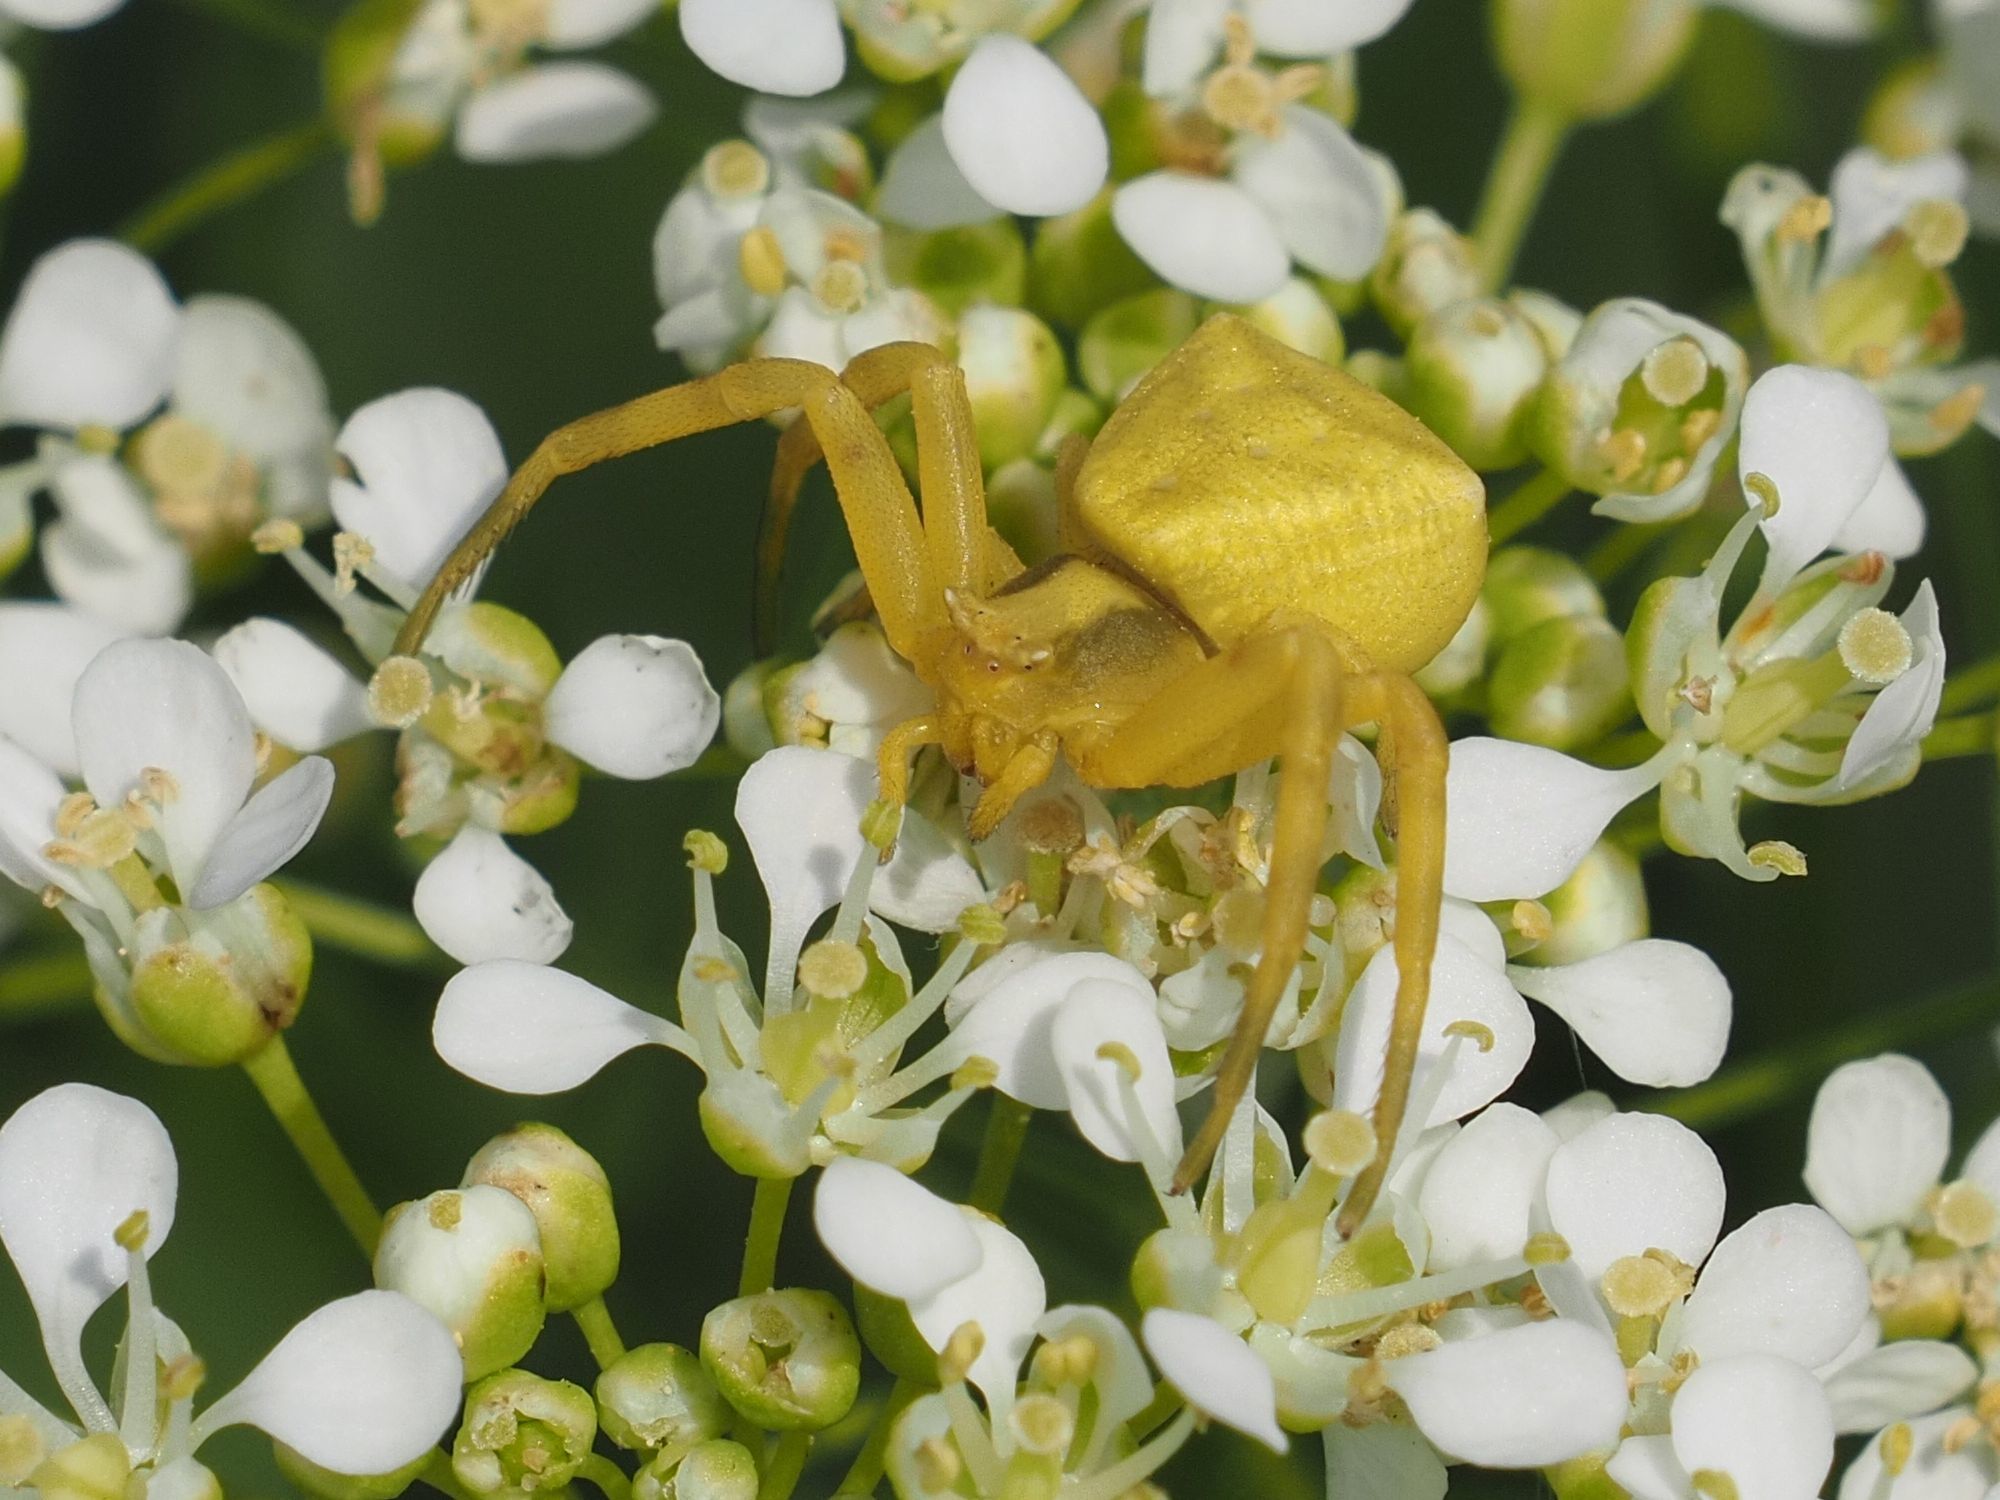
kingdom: Animalia
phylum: Arthropoda
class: Arachnida
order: Araneae
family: Thomisidae
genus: Thomisus
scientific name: Thomisus onustus
